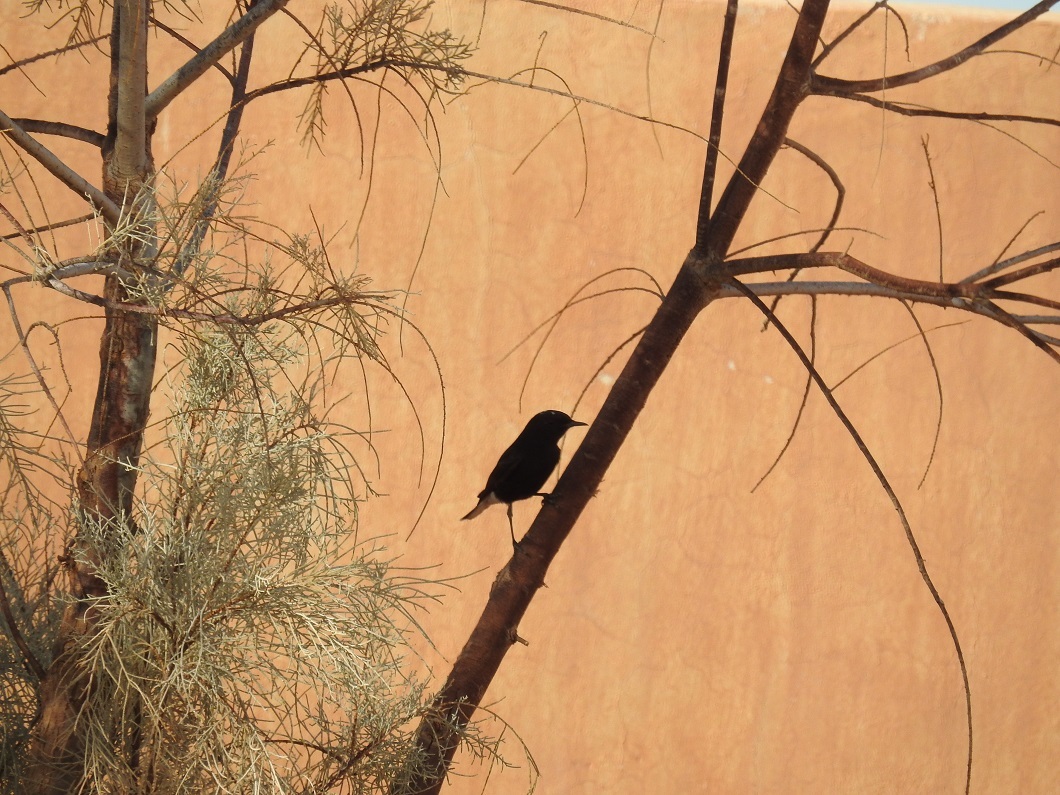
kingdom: Animalia
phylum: Chordata
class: Aves
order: Passeriformes
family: Muscicapidae
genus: Oenanthe
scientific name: Oenanthe leucopyga
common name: White-crowned wheatear
